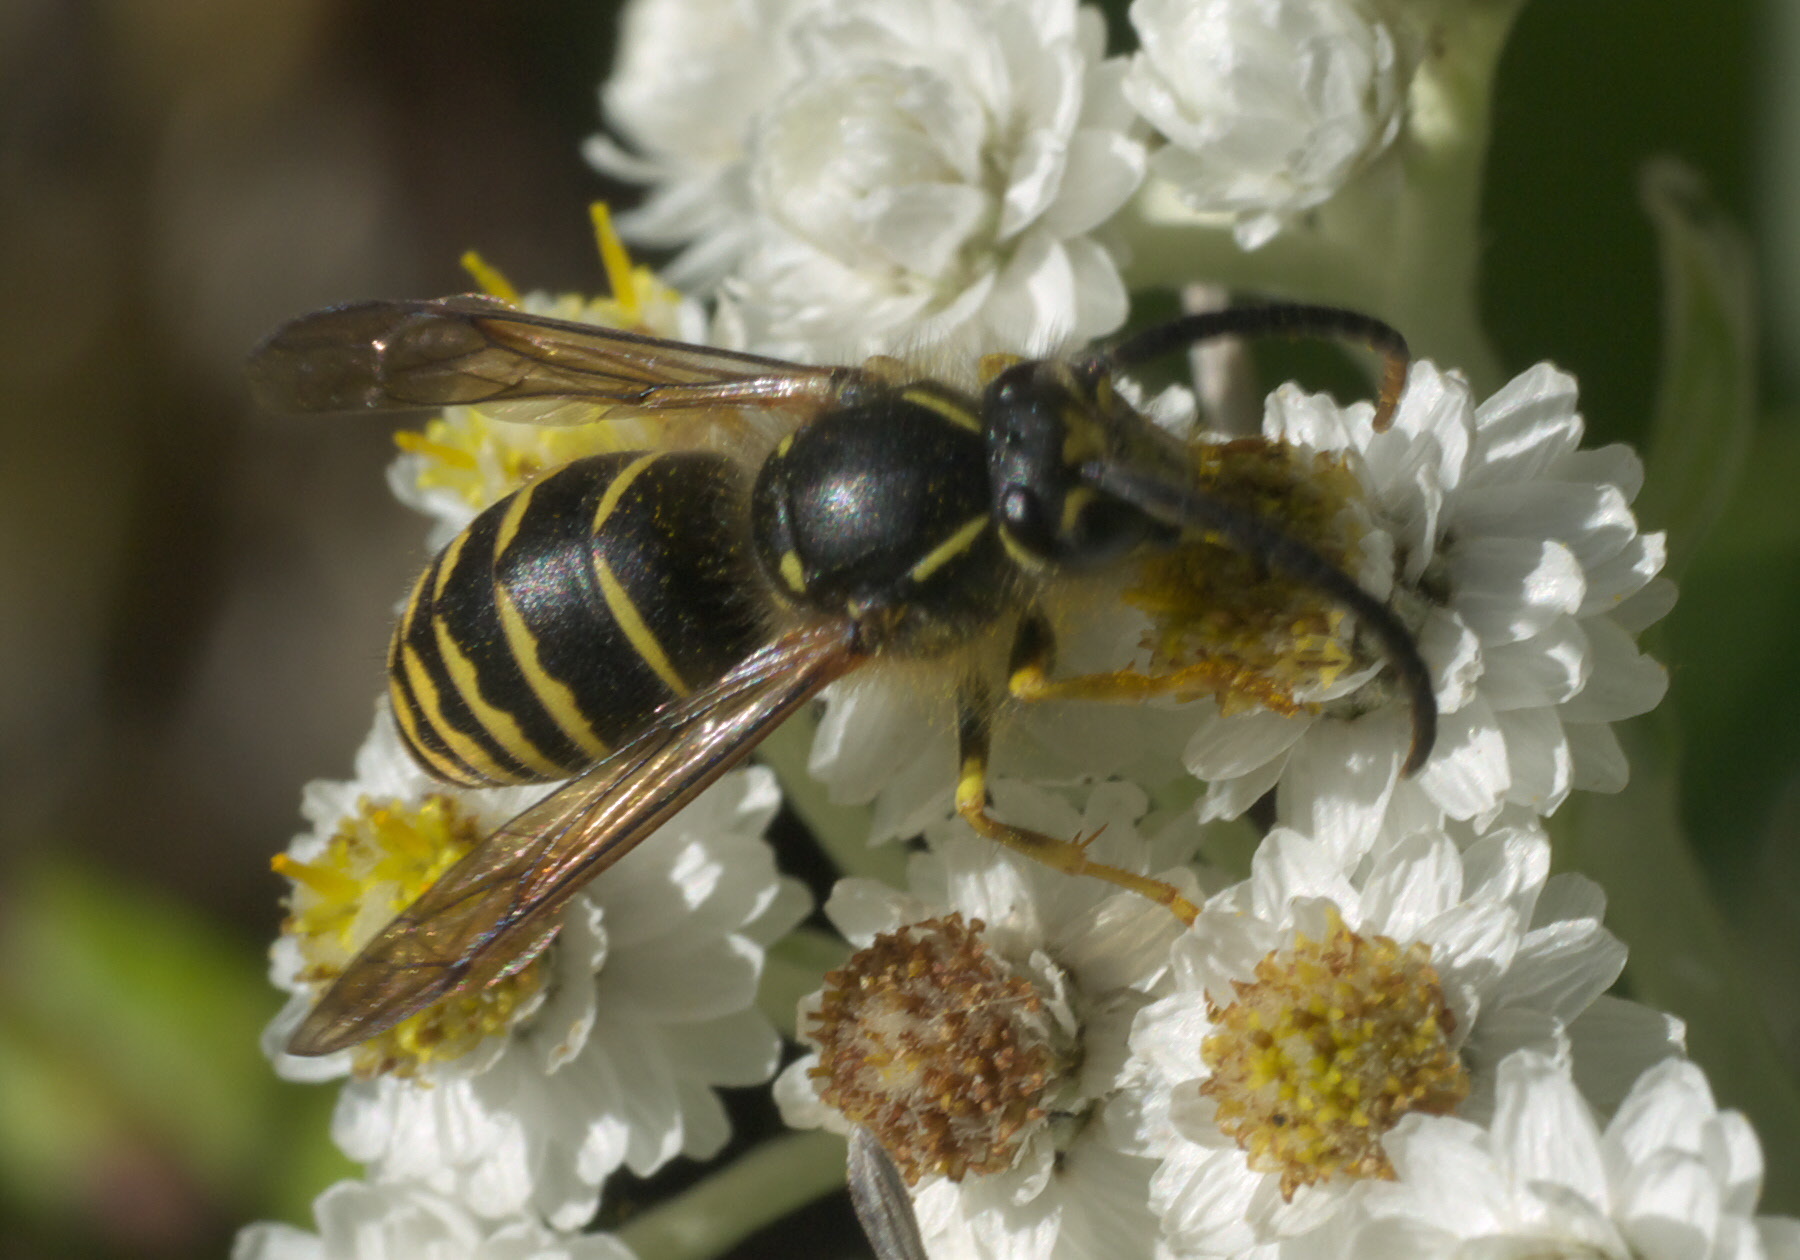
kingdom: Animalia
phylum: Arthropoda
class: Insecta
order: Hymenoptera
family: Vespidae
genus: Dolichovespula
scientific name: Dolichovespula arenaria
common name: Aerial yellowjacket
